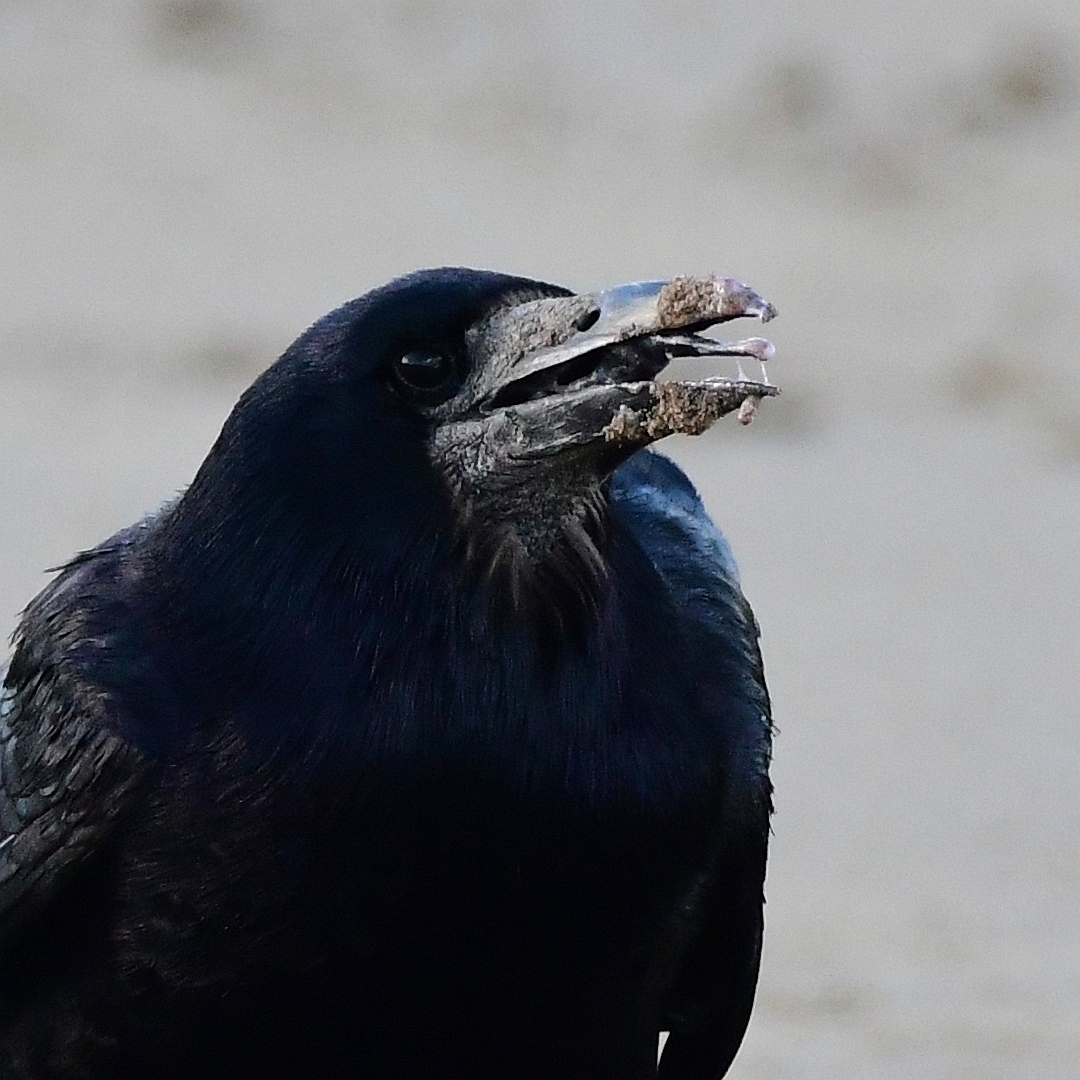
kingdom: Animalia
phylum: Chordata
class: Aves
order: Passeriformes
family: Corvidae
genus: Corvus
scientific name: Corvus frugilegus
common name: Rook
